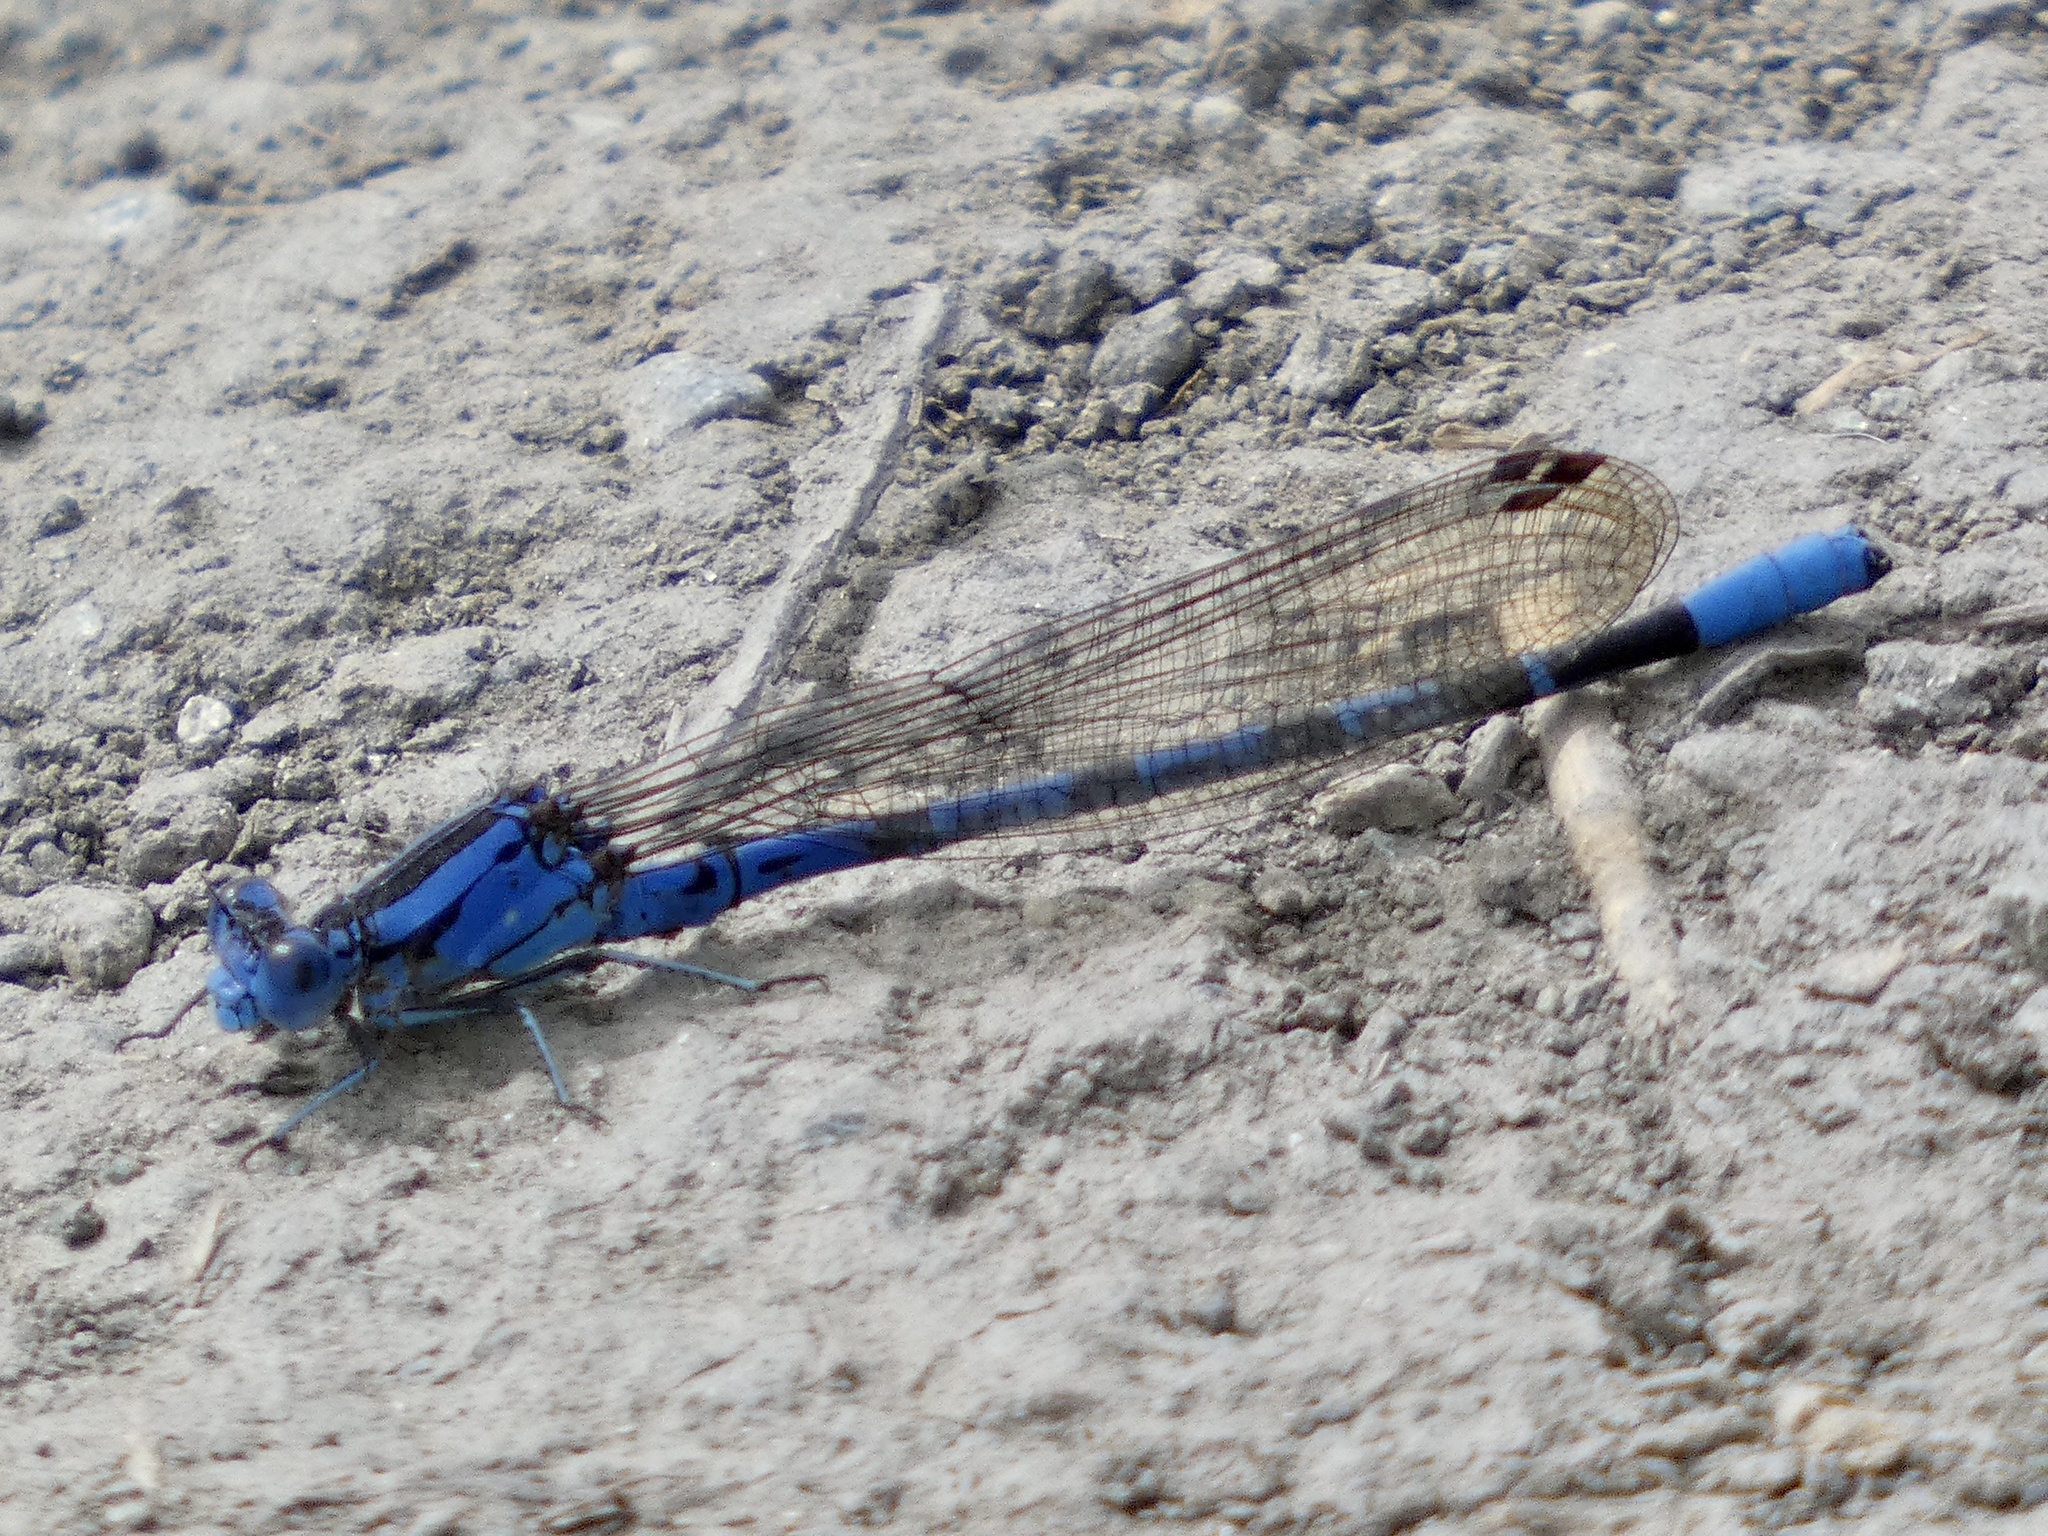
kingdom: Animalia
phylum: Arthropoda
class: Insecta
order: Odonata
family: Coenagrionidae
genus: Argia
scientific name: Argia vivida
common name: Vivid dancer
